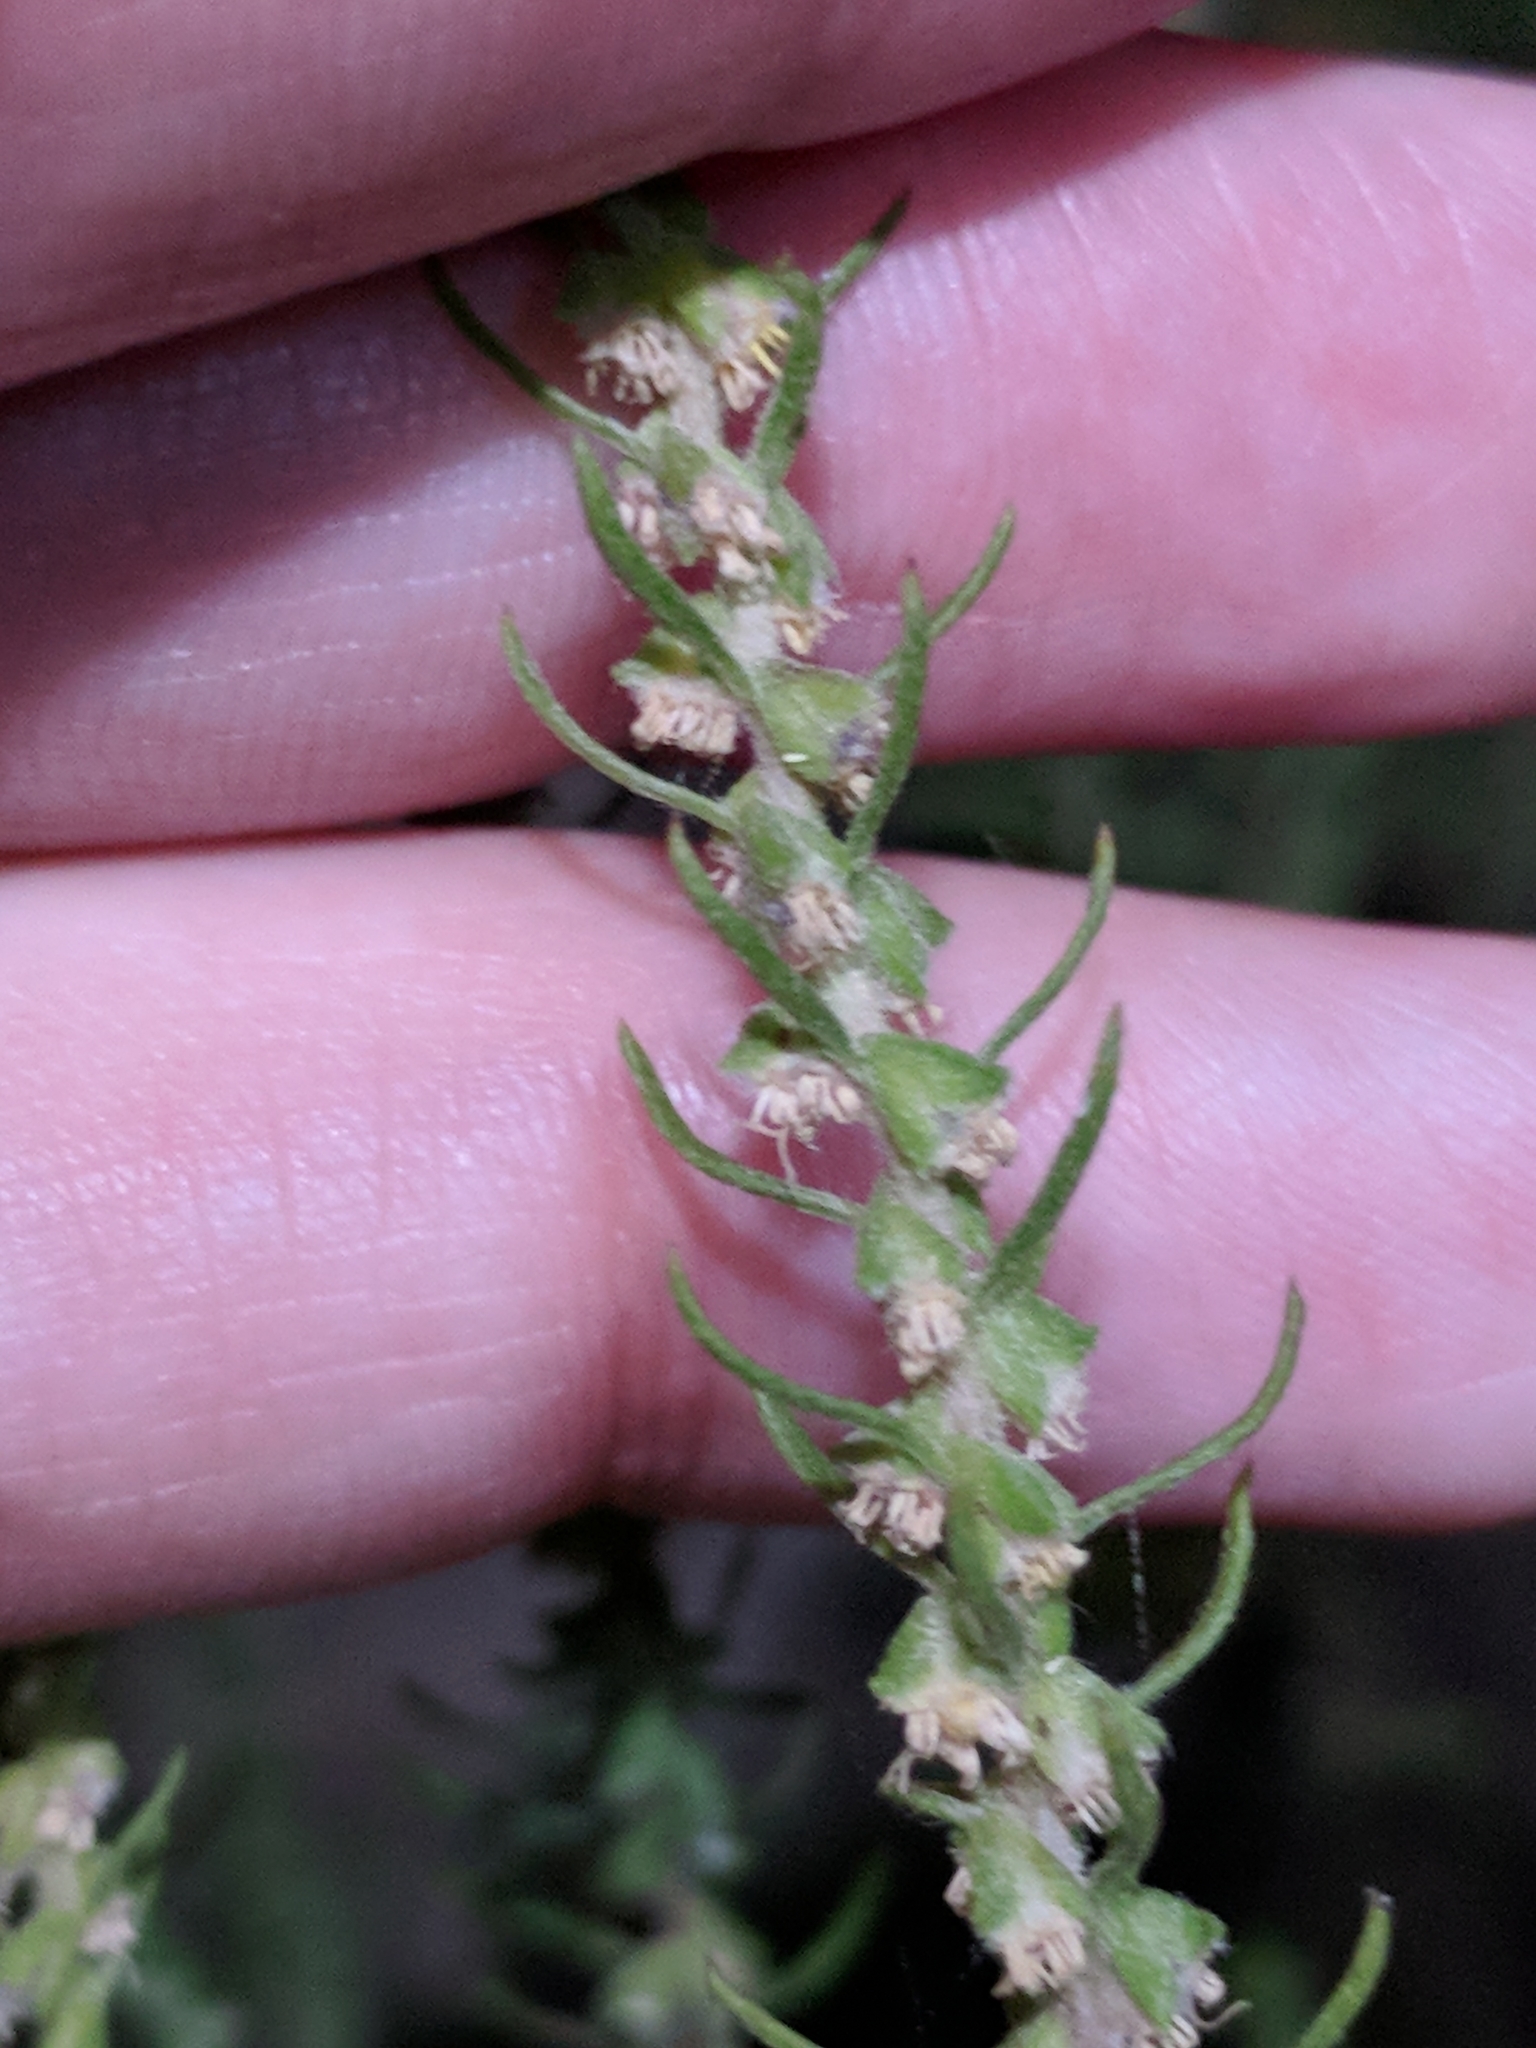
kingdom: Plantae
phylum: Tracheophyta
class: Magnoliopsida
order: Asterales
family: Asteraceae
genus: Iva
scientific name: Iva asperifolia
